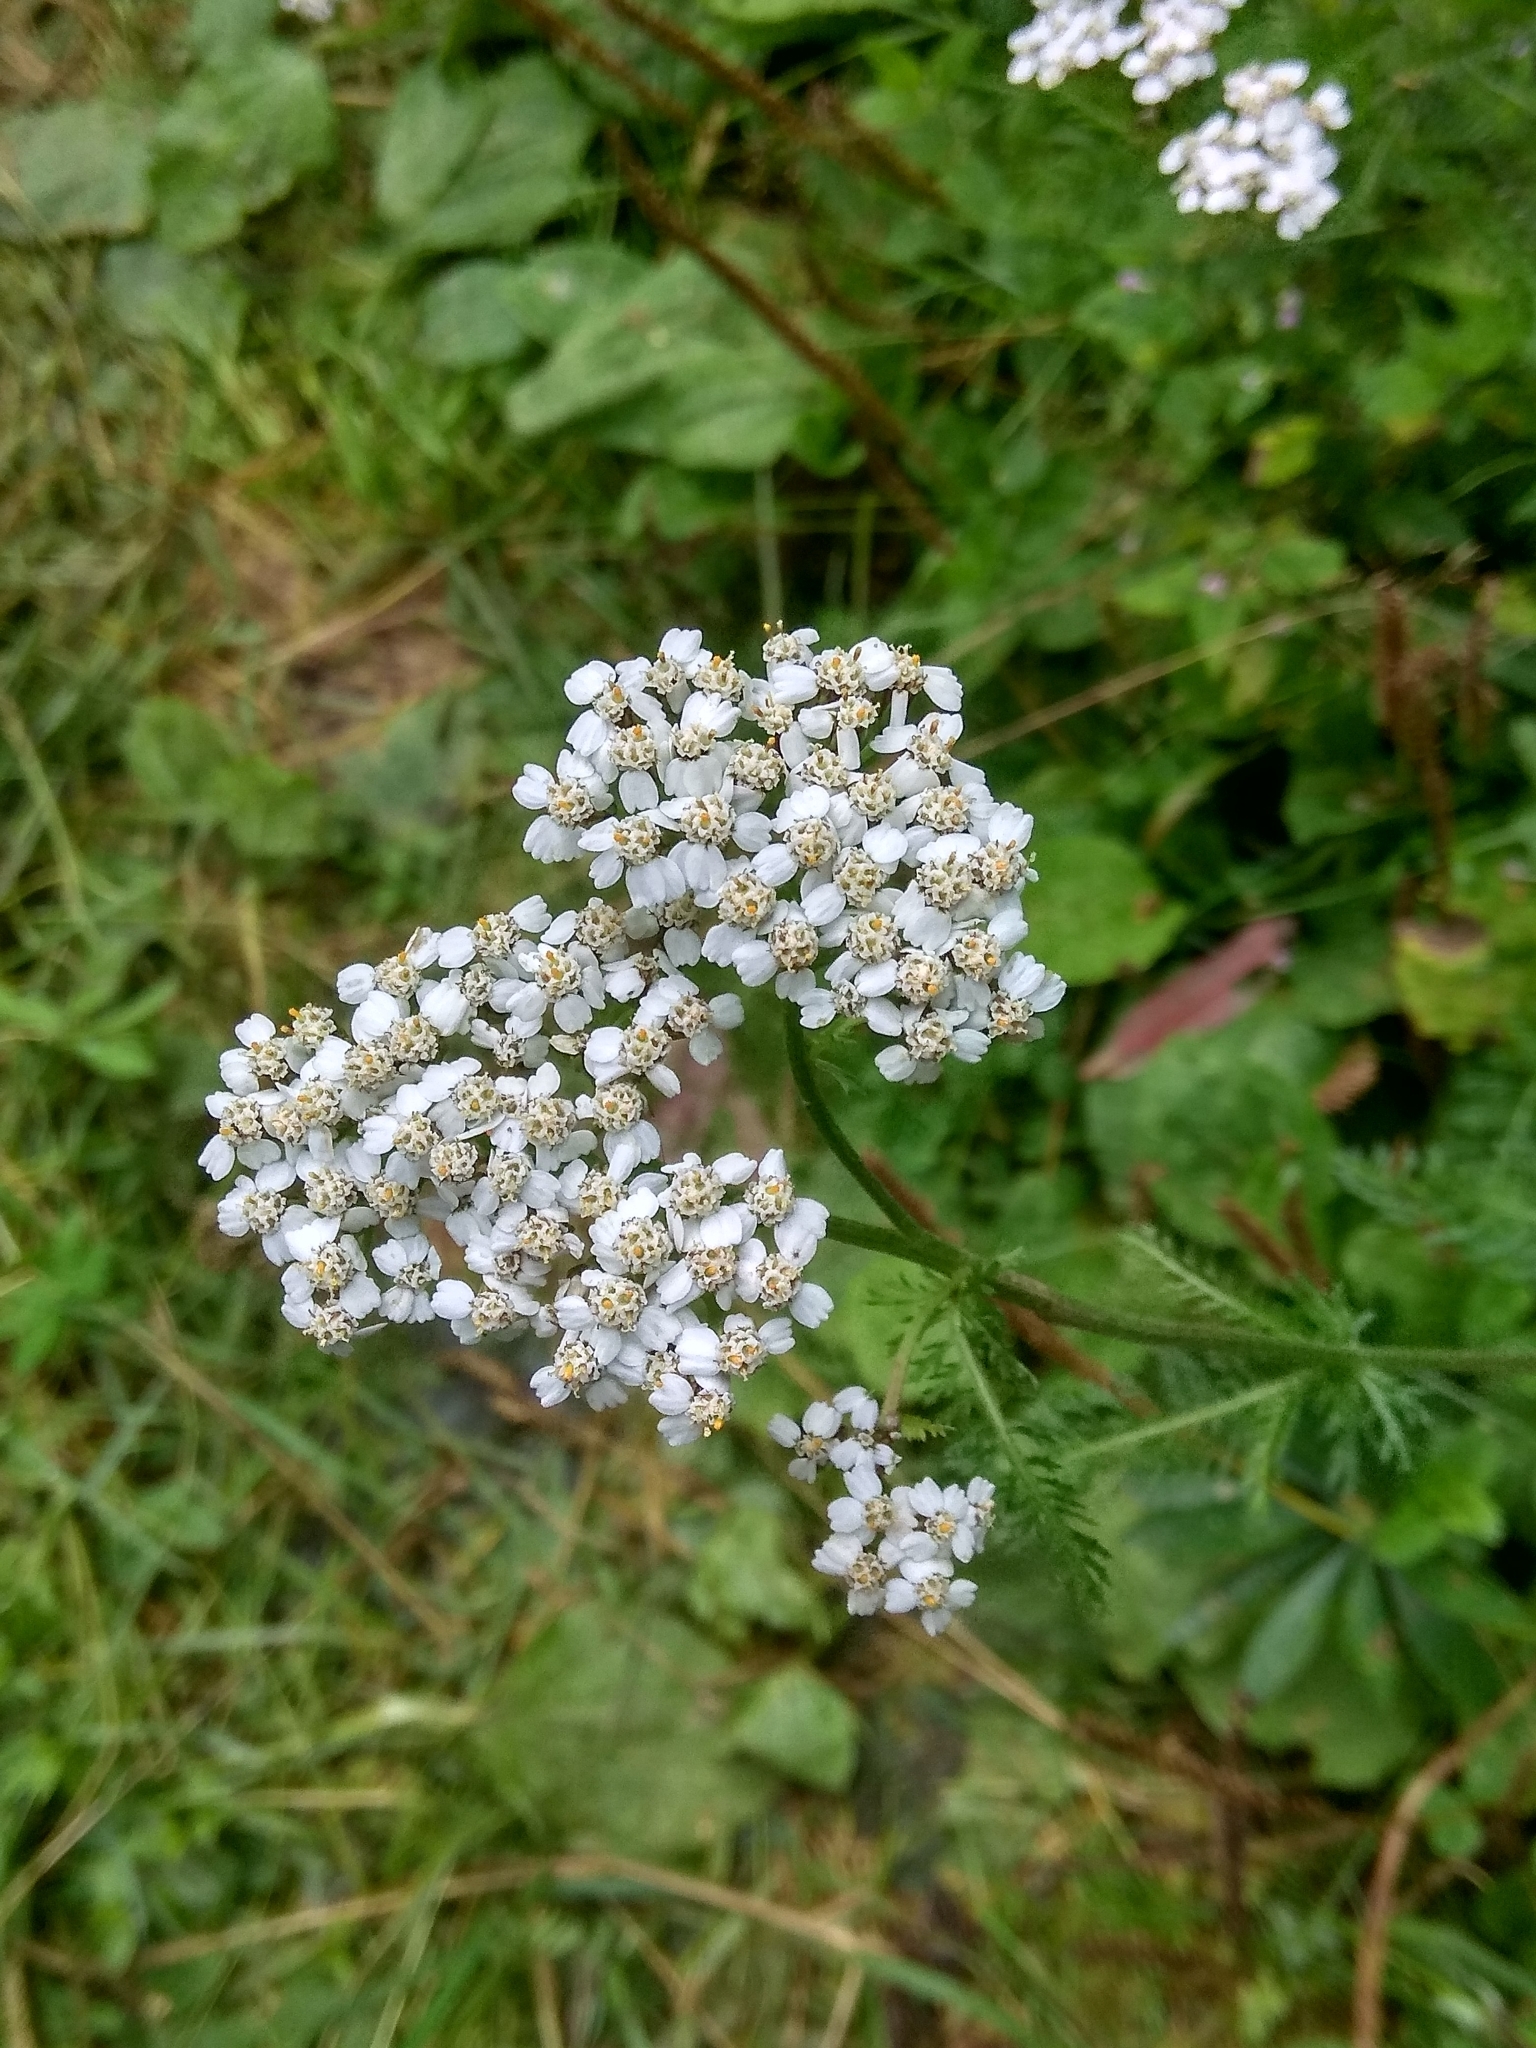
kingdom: Plantae
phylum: Tracheophyta
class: Magnoliopsida
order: Asterales
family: Asteraceae
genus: Achillea
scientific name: Achillea millefolium
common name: Yarrow
